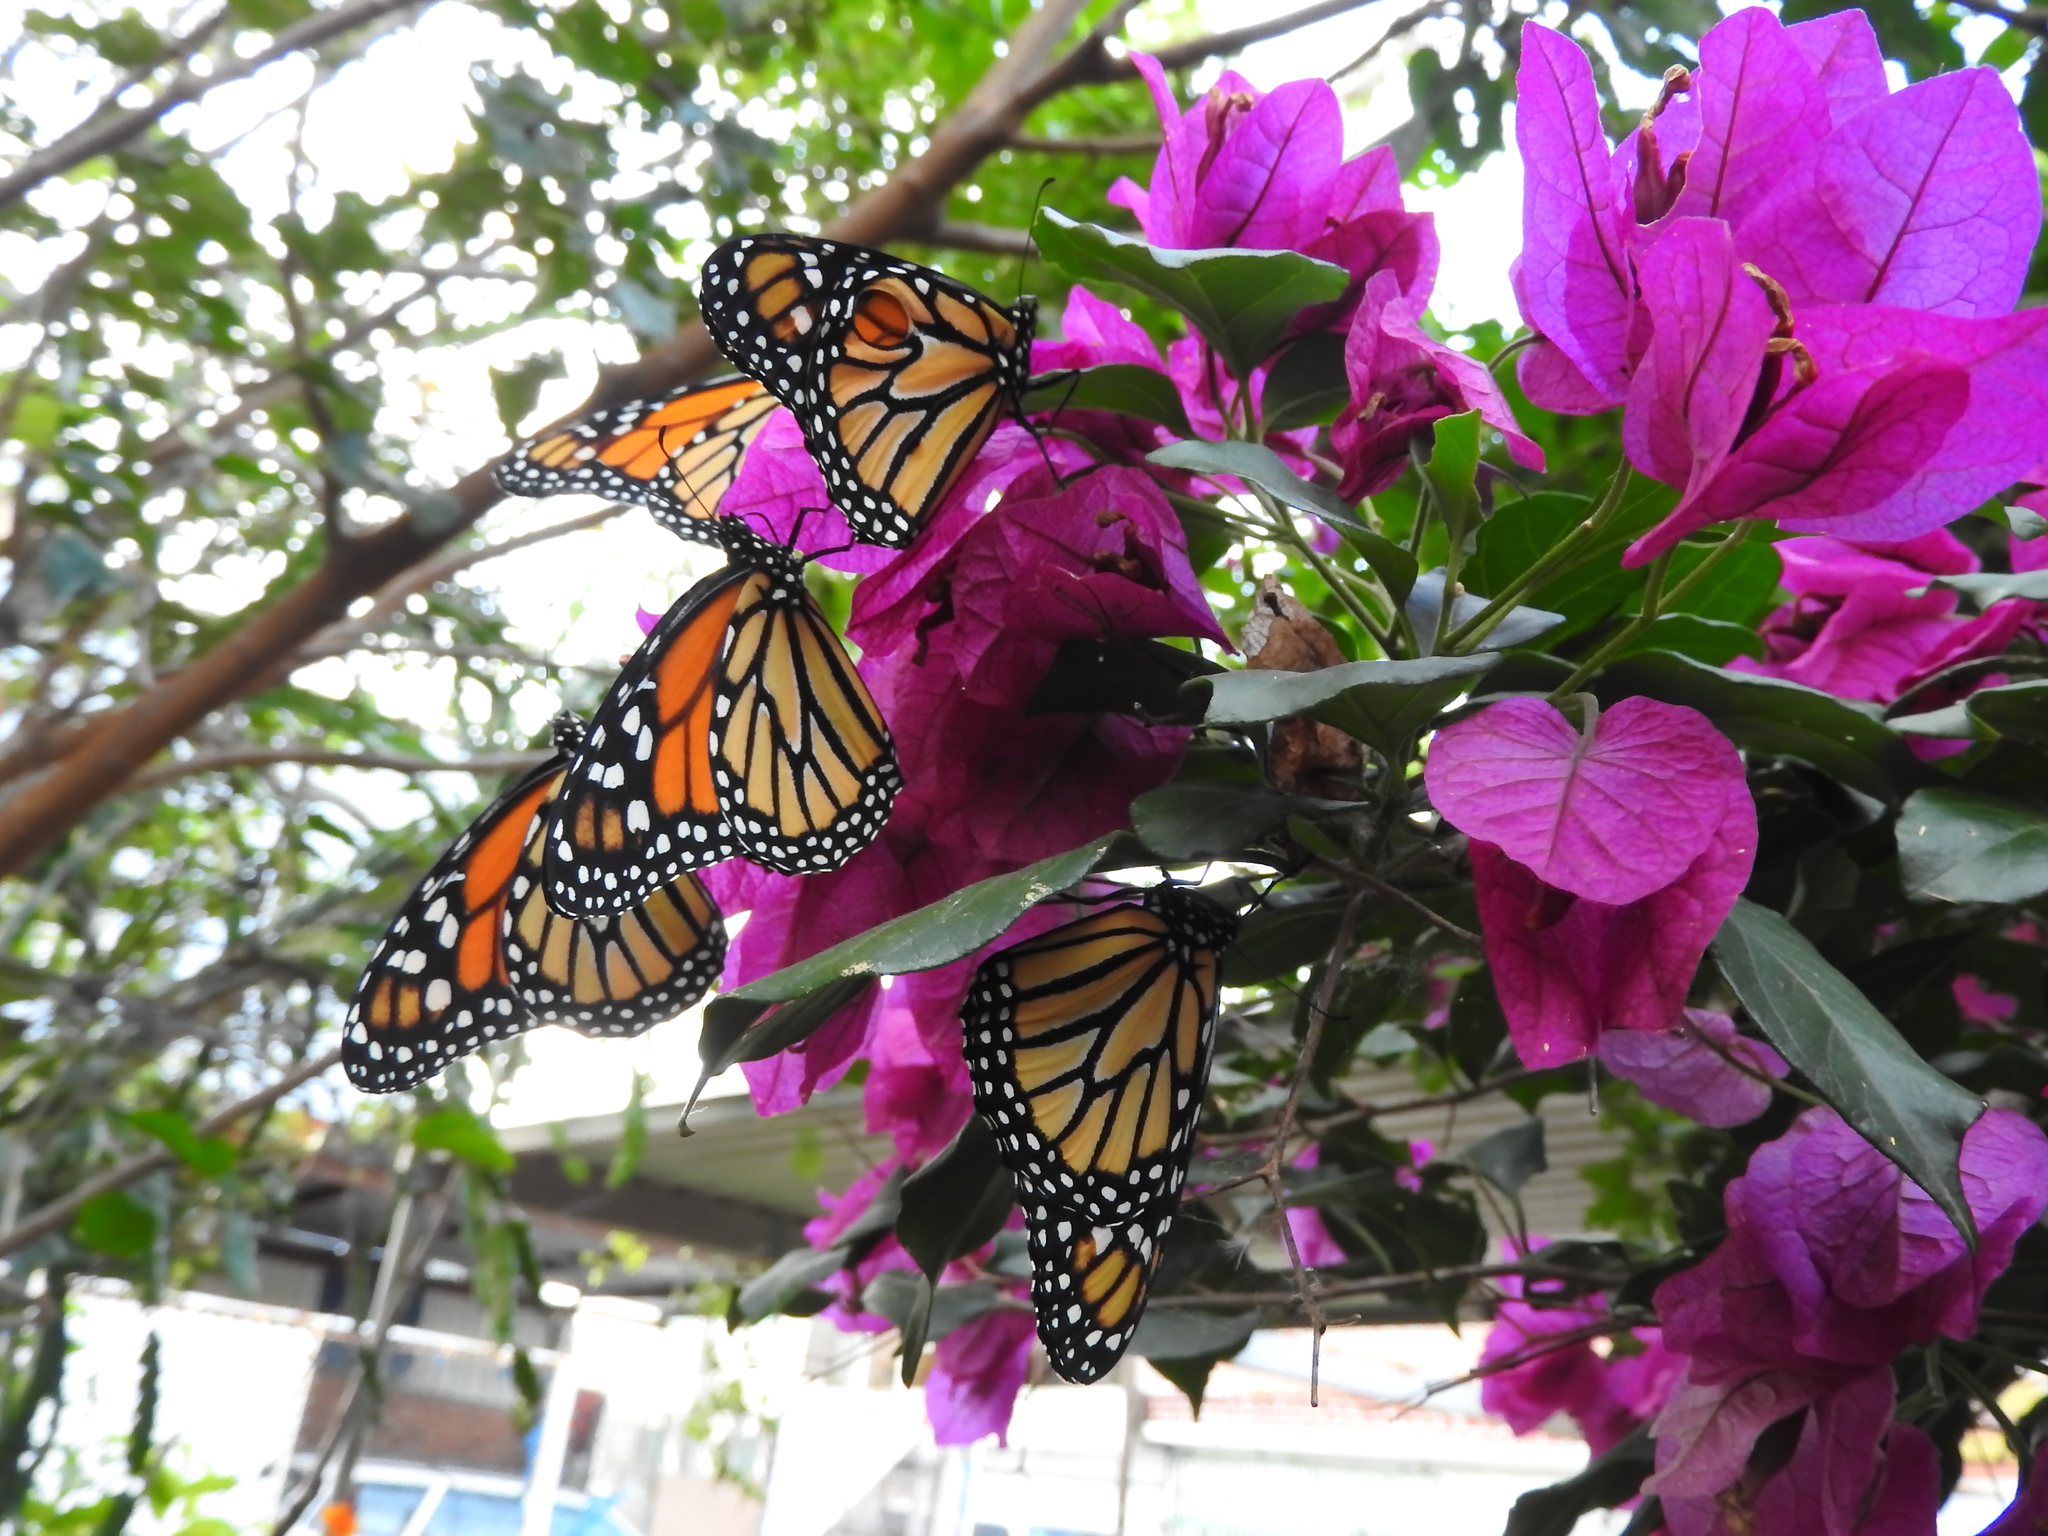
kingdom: Animalia
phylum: Arthropoda
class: Insecta
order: Lepidoptera
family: Nymphalidae
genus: Danaus
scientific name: Danaus plexippus
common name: Monarch
